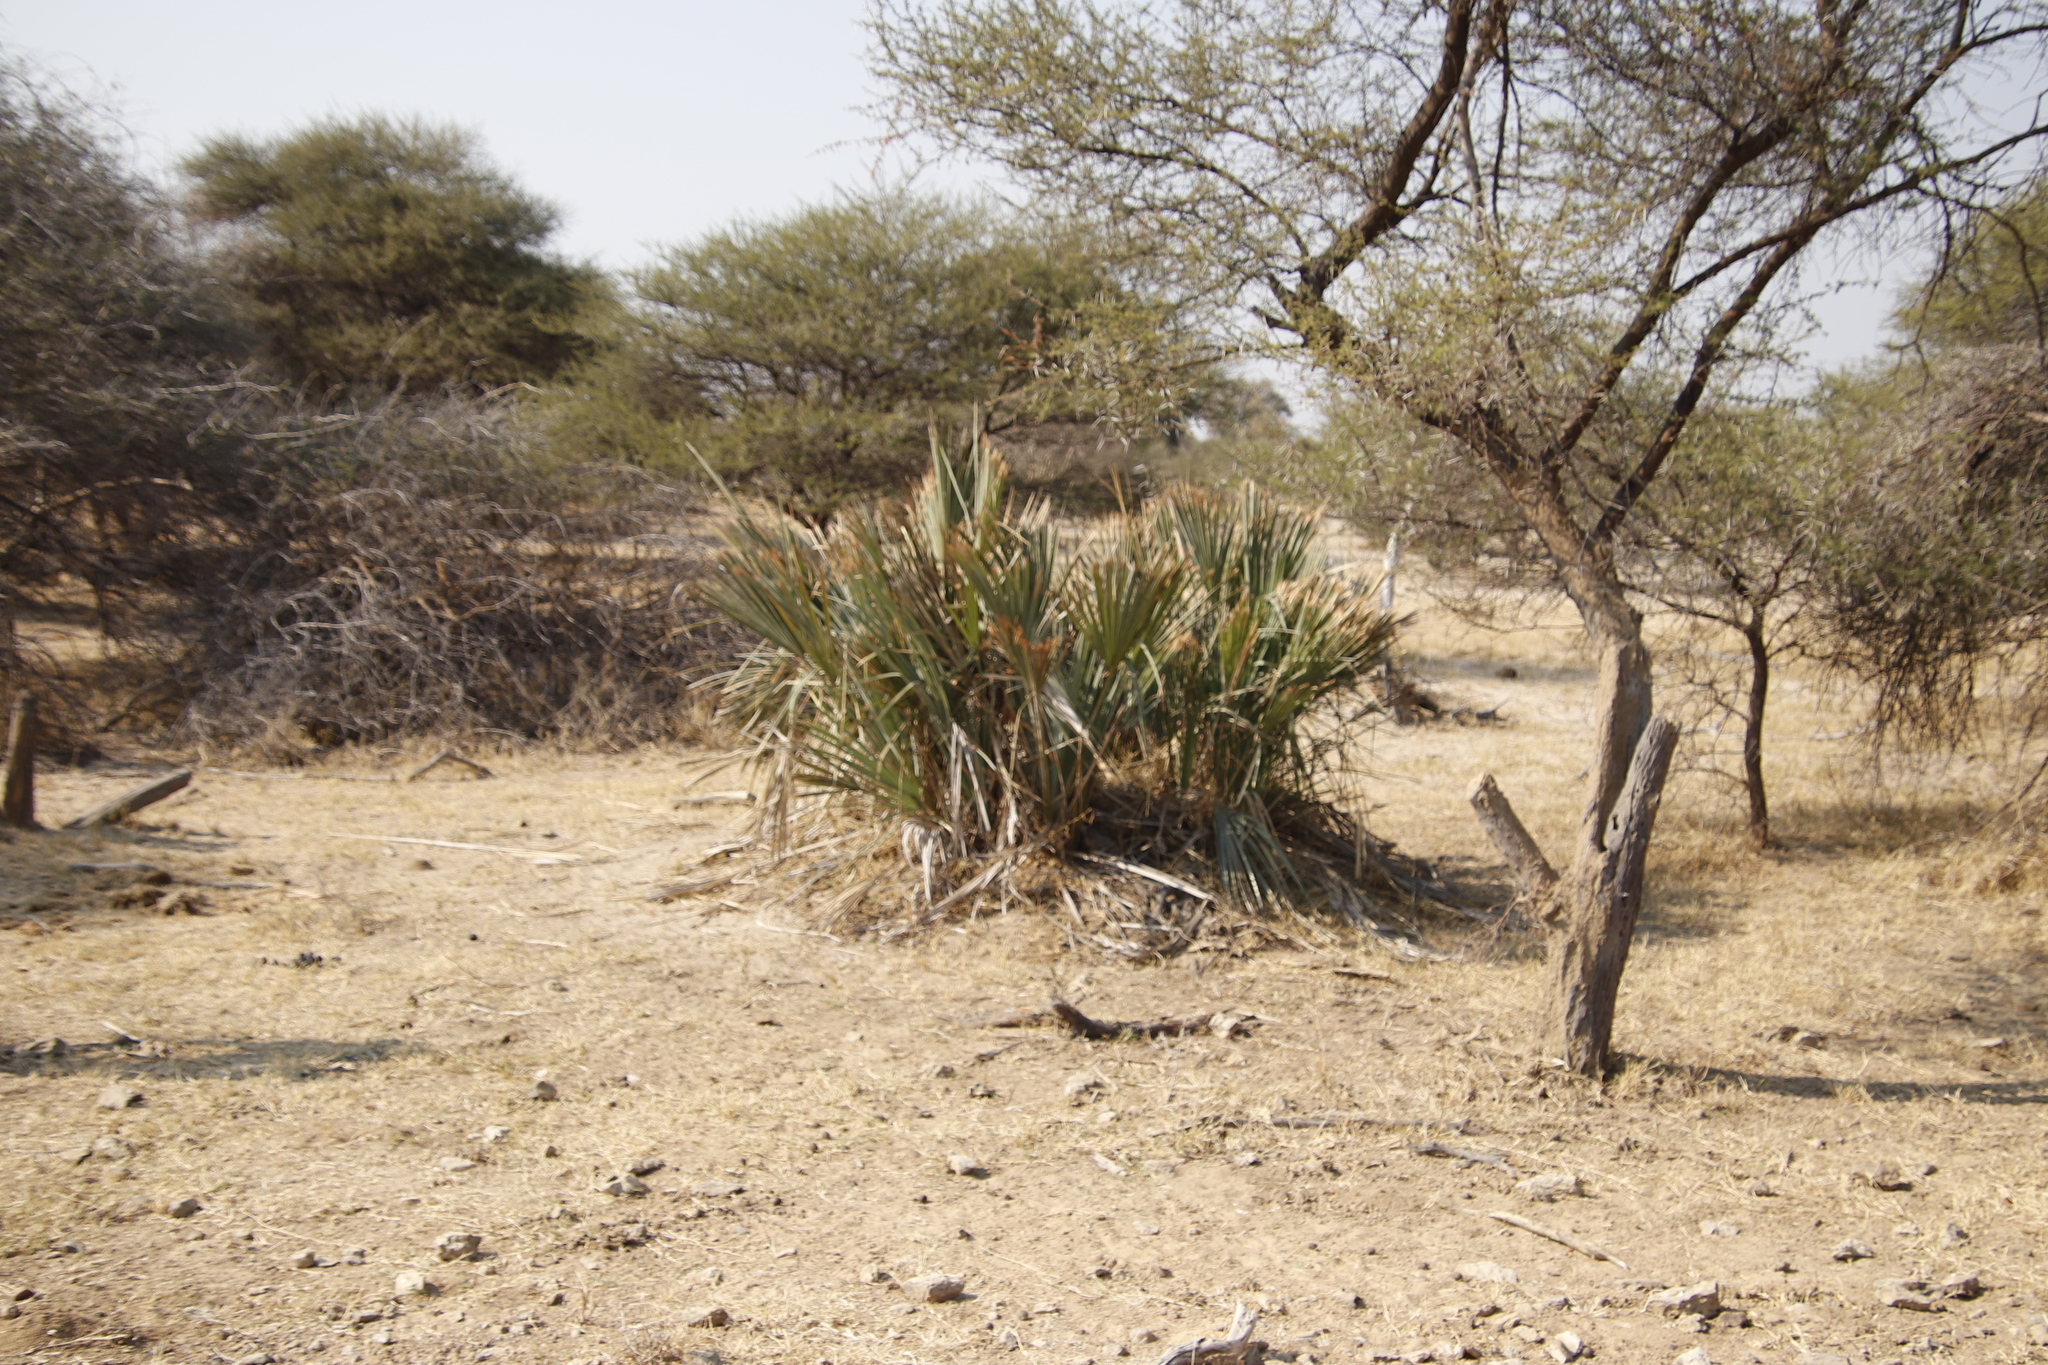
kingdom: Plantae
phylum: Tracheophyta
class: Liliopsida
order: Arecales
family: Arecaceae
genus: Hyphaene
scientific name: Hyphaene petersiana
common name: African ivory nut palm
